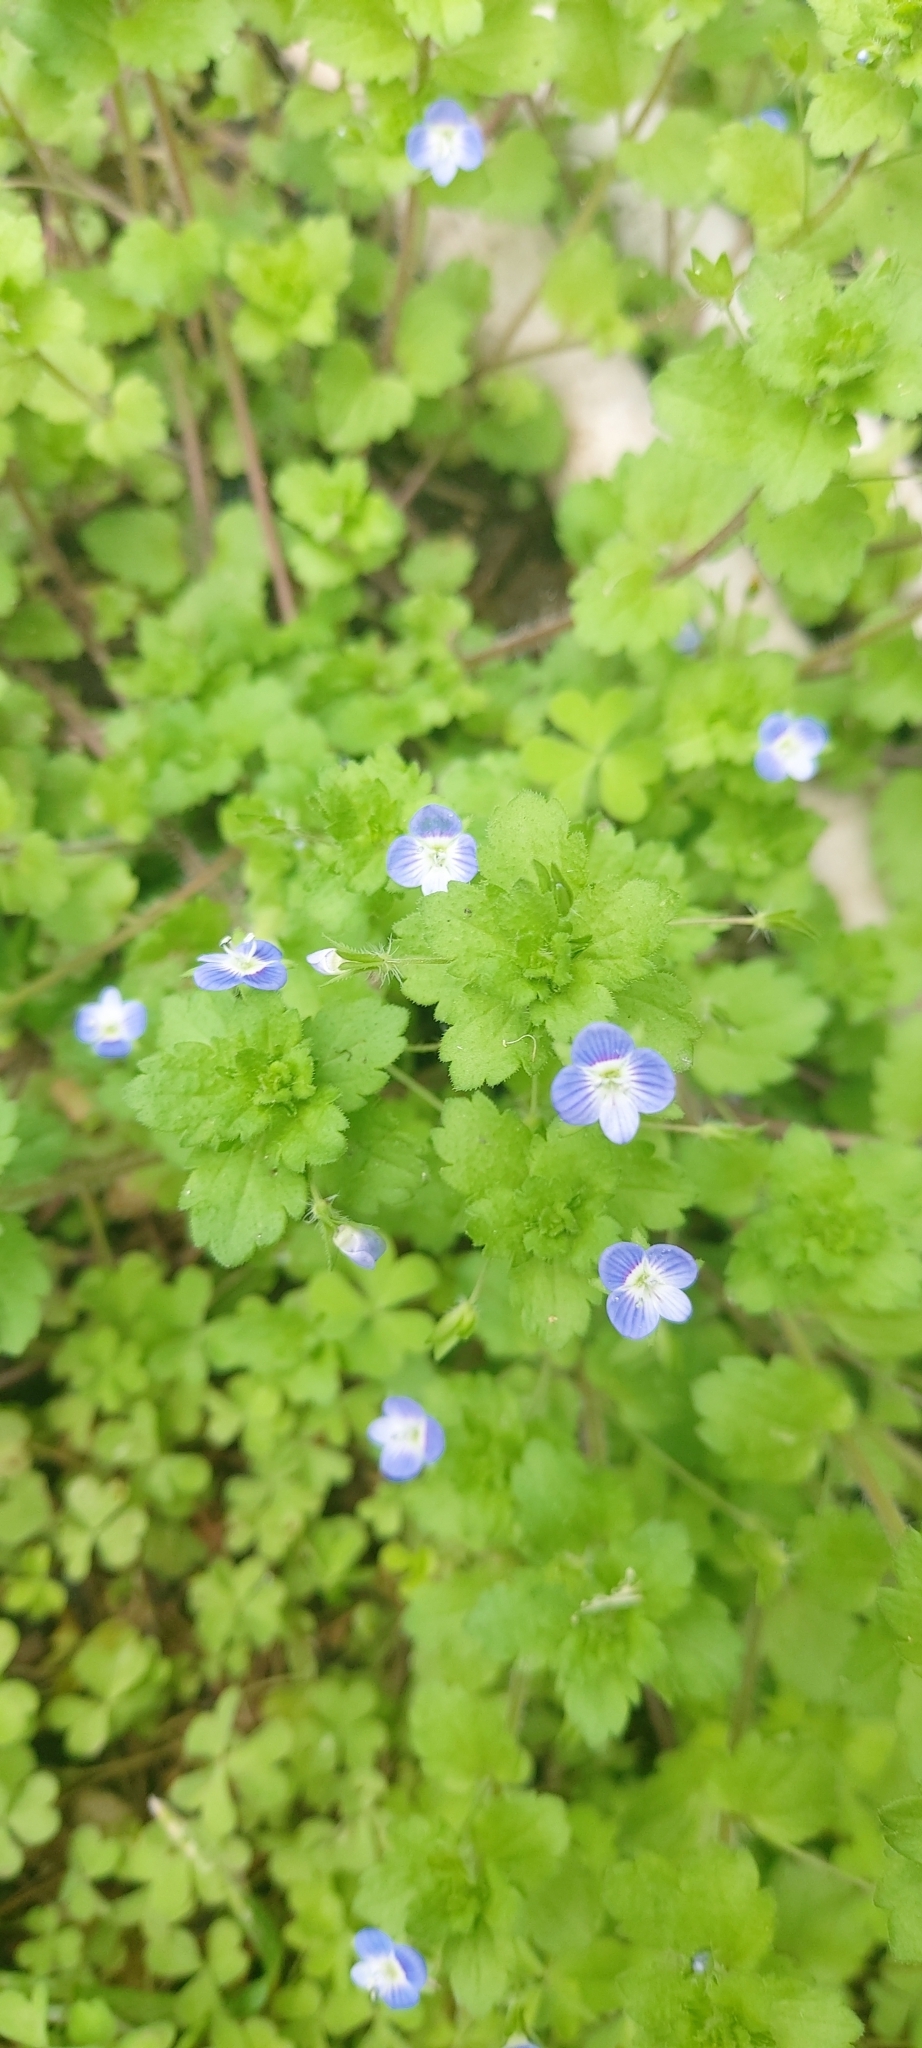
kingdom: Plantae
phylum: Tracheophyta
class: Magnoliopsida
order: Lamiales
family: Plantaginaceae
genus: Veronica
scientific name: Veronica persica
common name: Common field-speedwell
